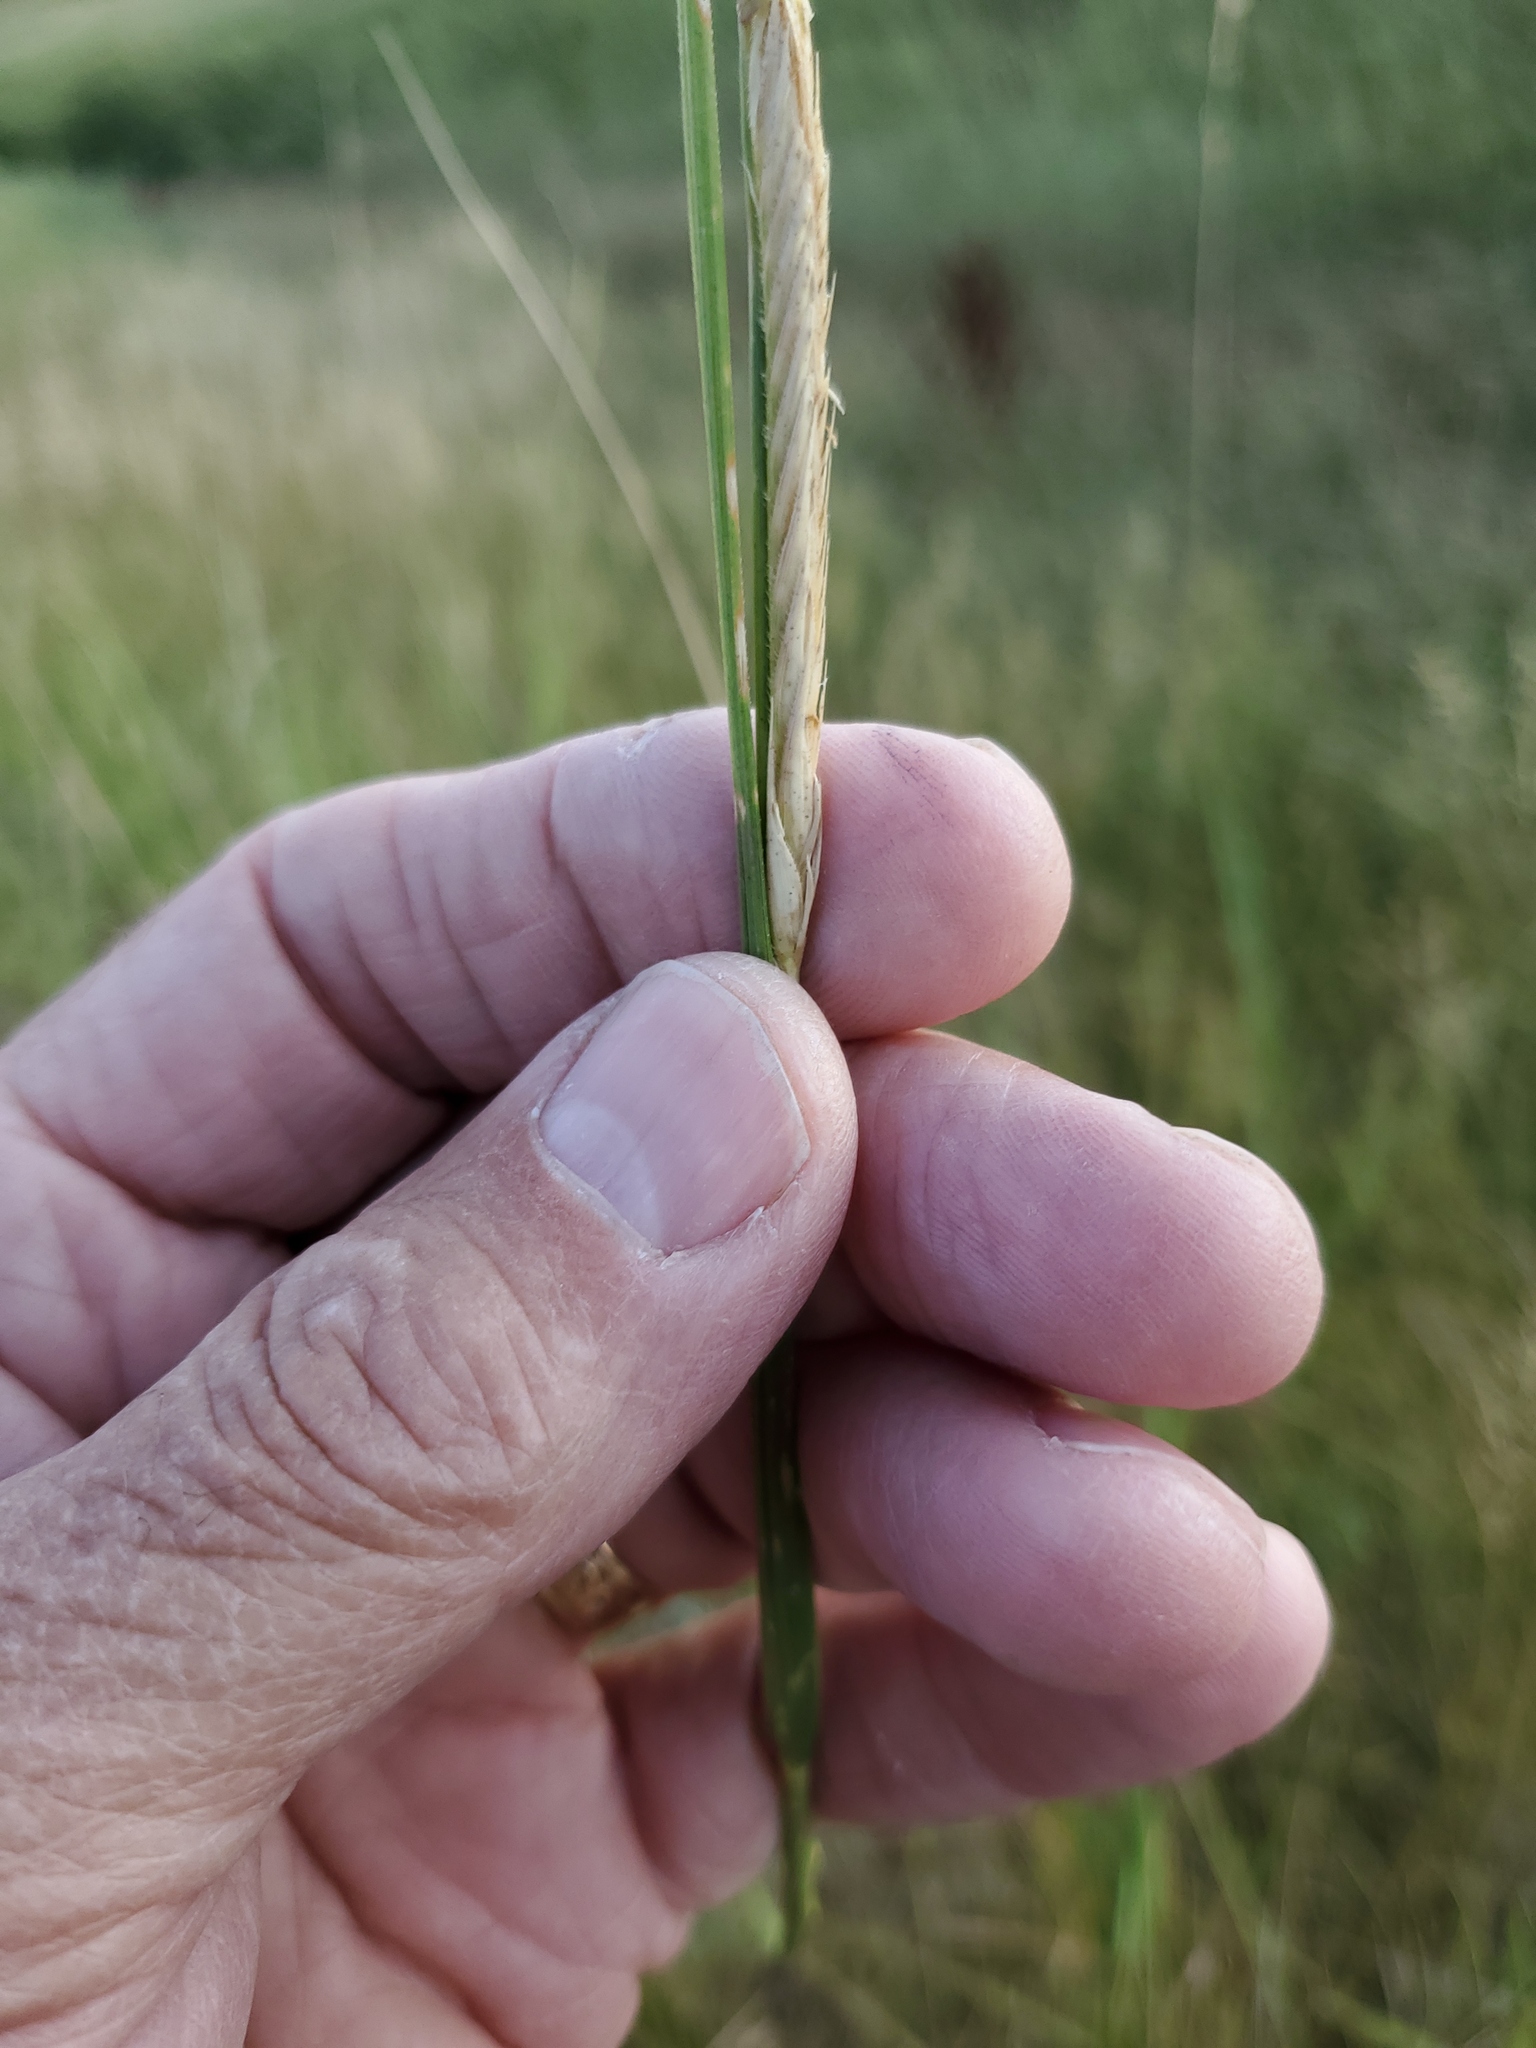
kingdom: Plantae
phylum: Tracheophyta
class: Liliopsida
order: Poales
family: Poaceae
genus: Sporobolus
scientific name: Sporobolus michauxianus
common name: Freshwater cordgrass
